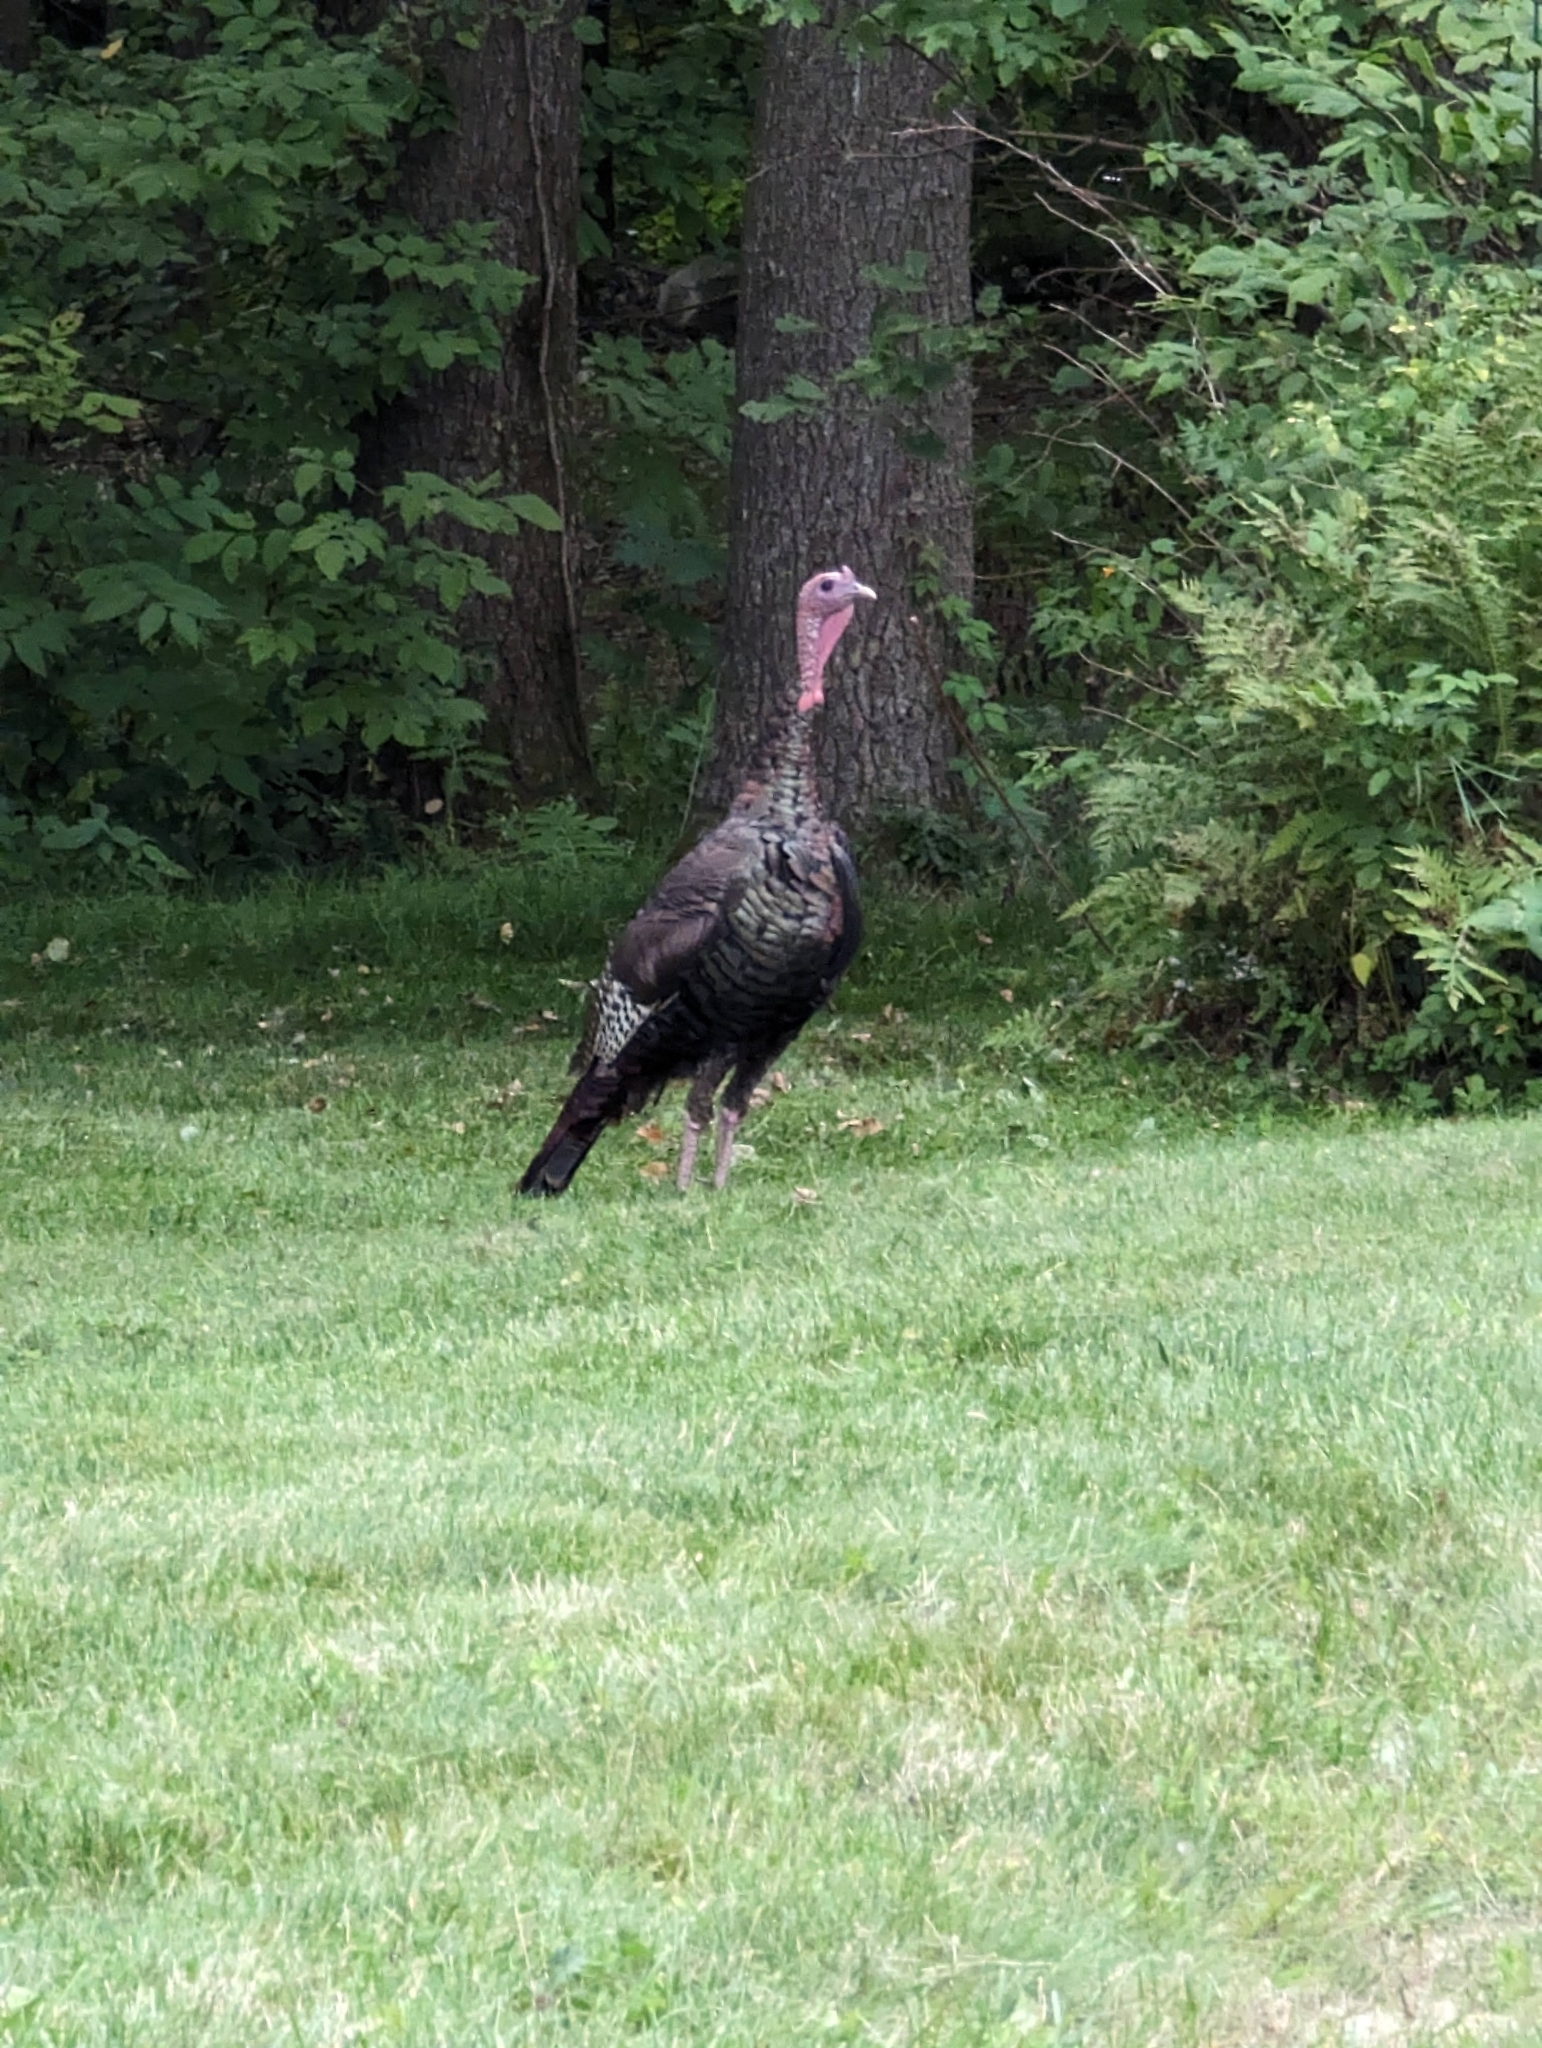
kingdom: Animalia
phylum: Chordata
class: Aves
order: Galliformes
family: Phasianidae
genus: Meleagris
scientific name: Meleagris gallopavo
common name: Wild turkey
